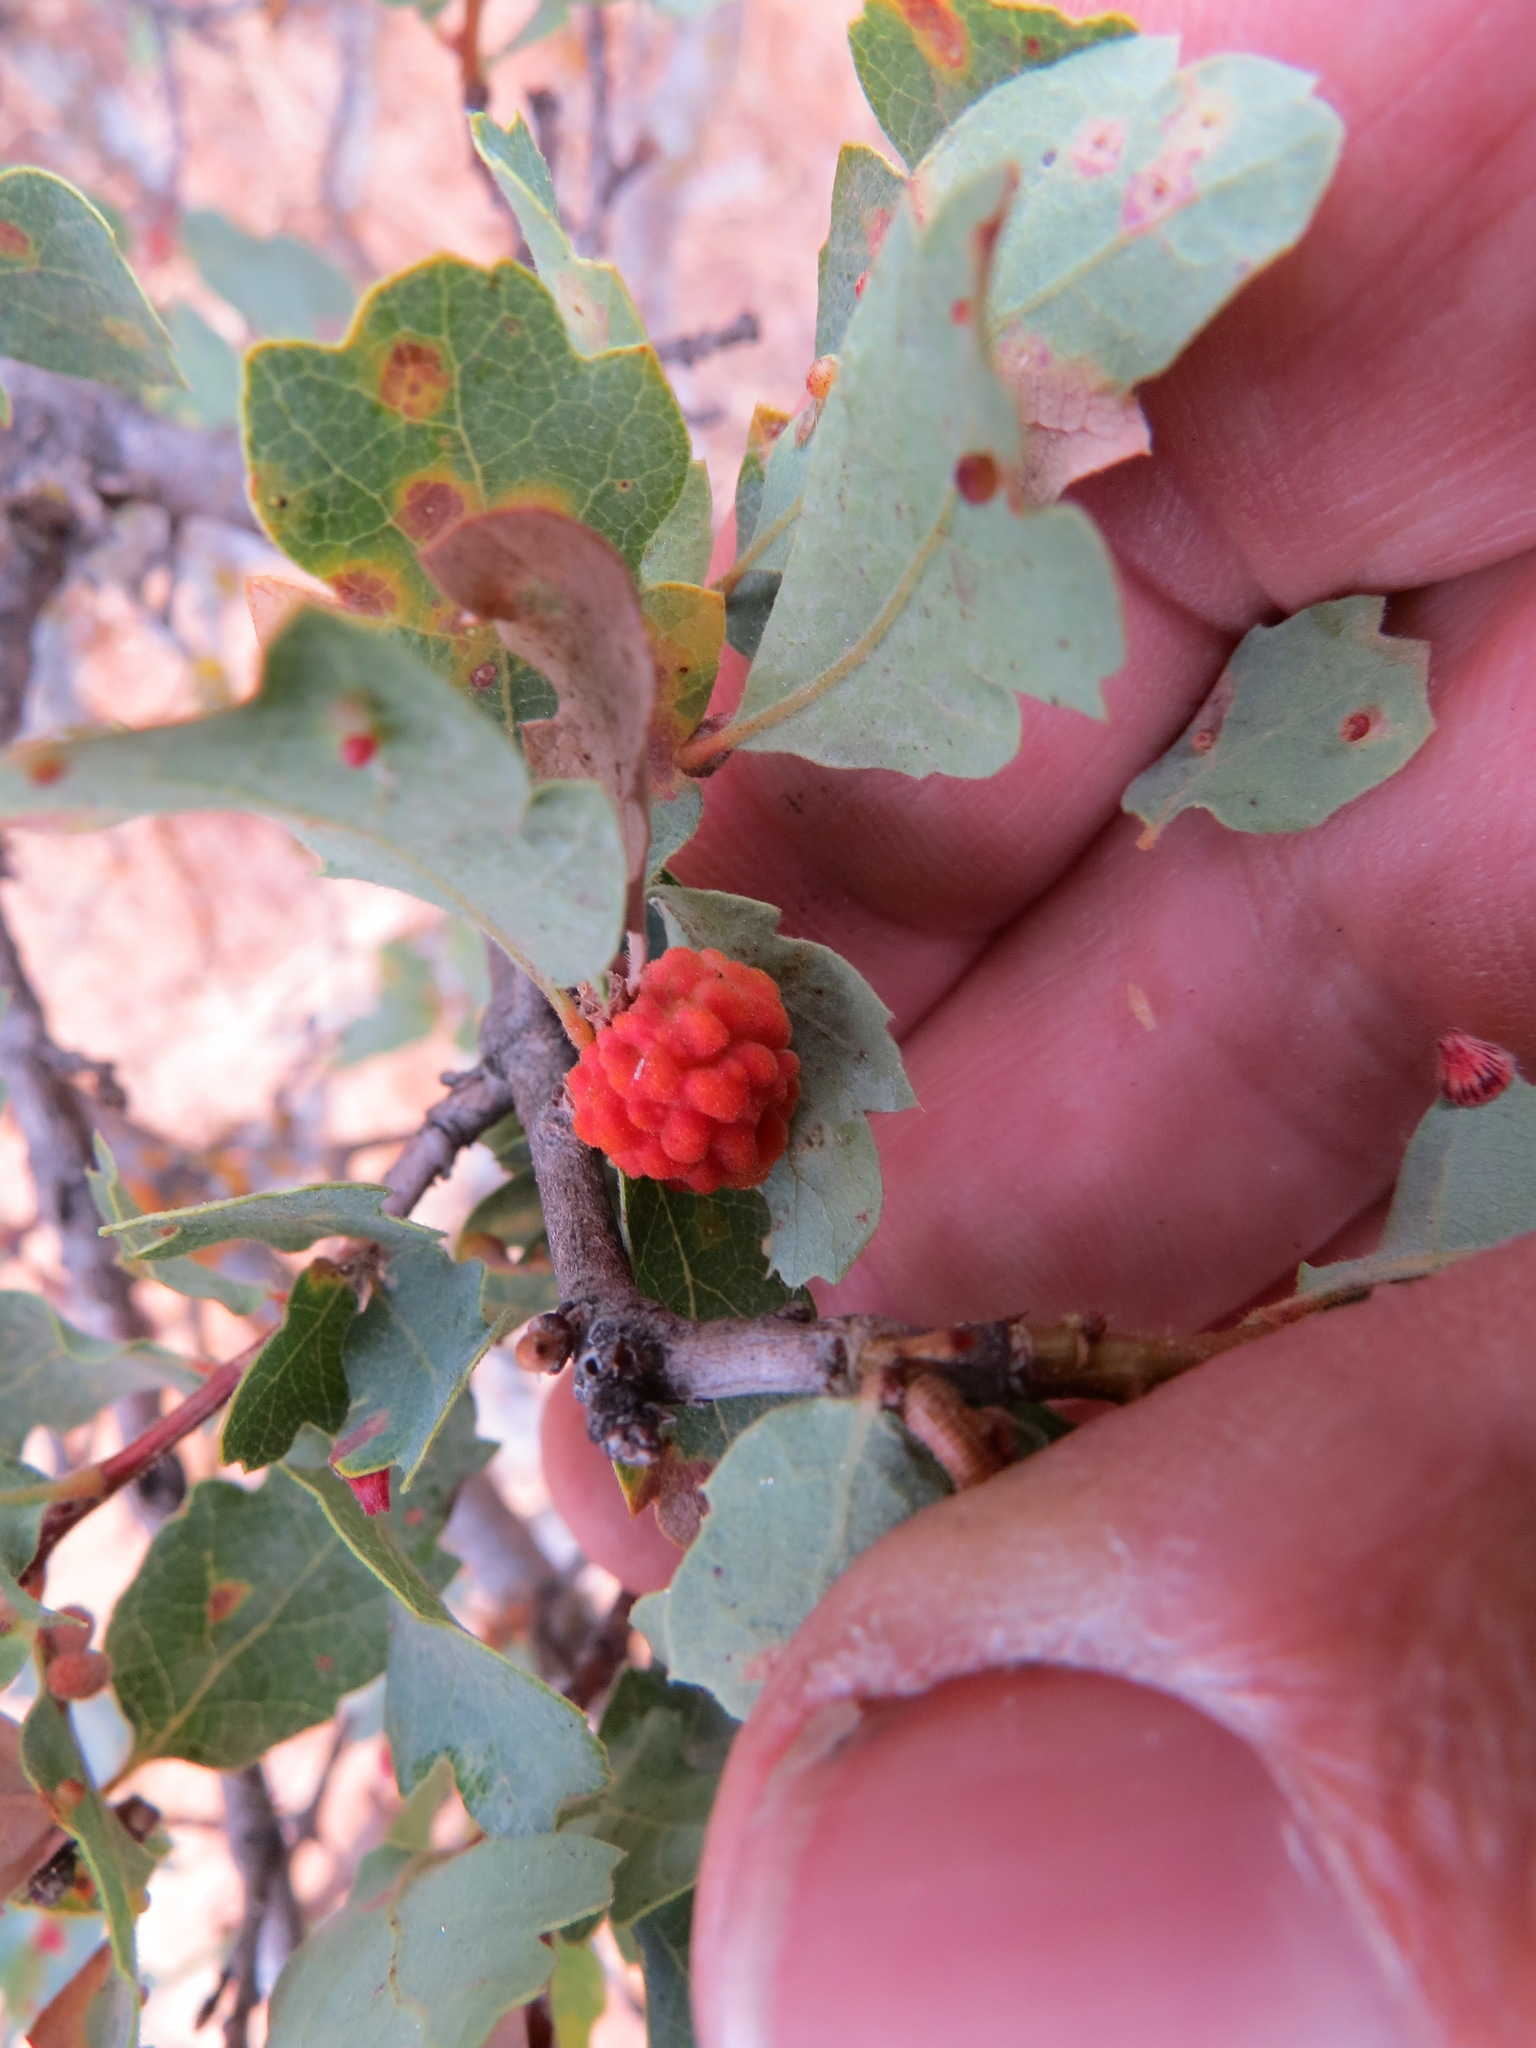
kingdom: Animalia
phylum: Arthropoda
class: Insecta
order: Hymenoptera
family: Cynipidae
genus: Burnettweldia
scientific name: Burnettweldia
